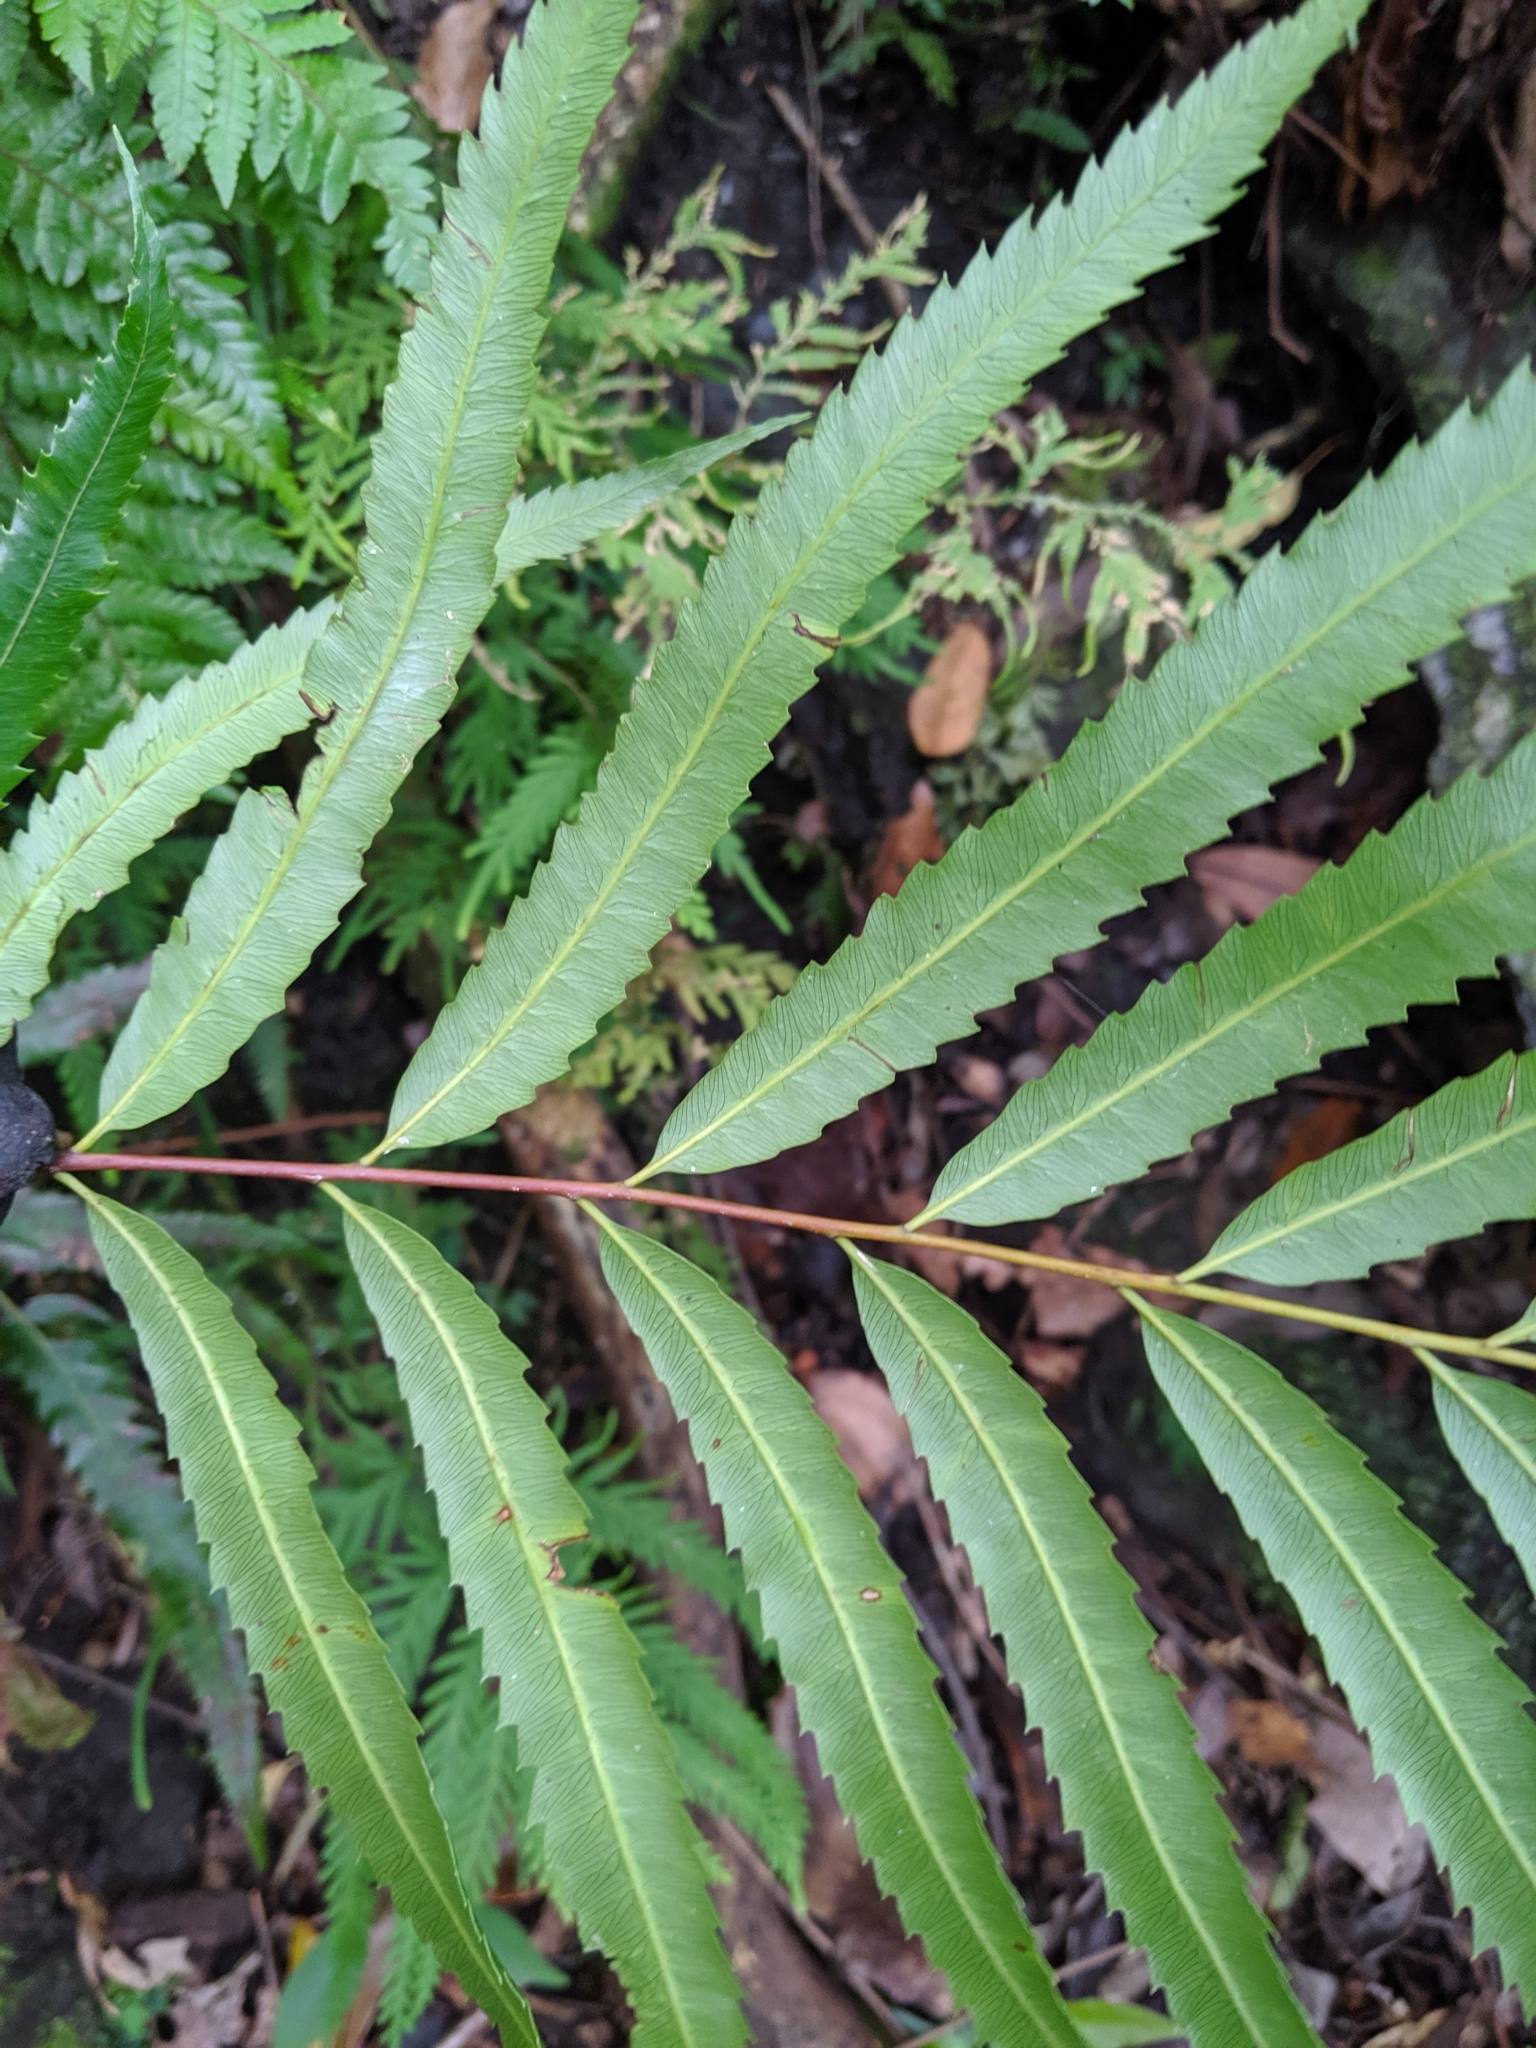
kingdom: Plantae
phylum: Tracheophyta
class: Polypodiopsida
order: Osmundales
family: Osmundaceae
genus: Plenasium
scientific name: Plenasium banksiifolium
